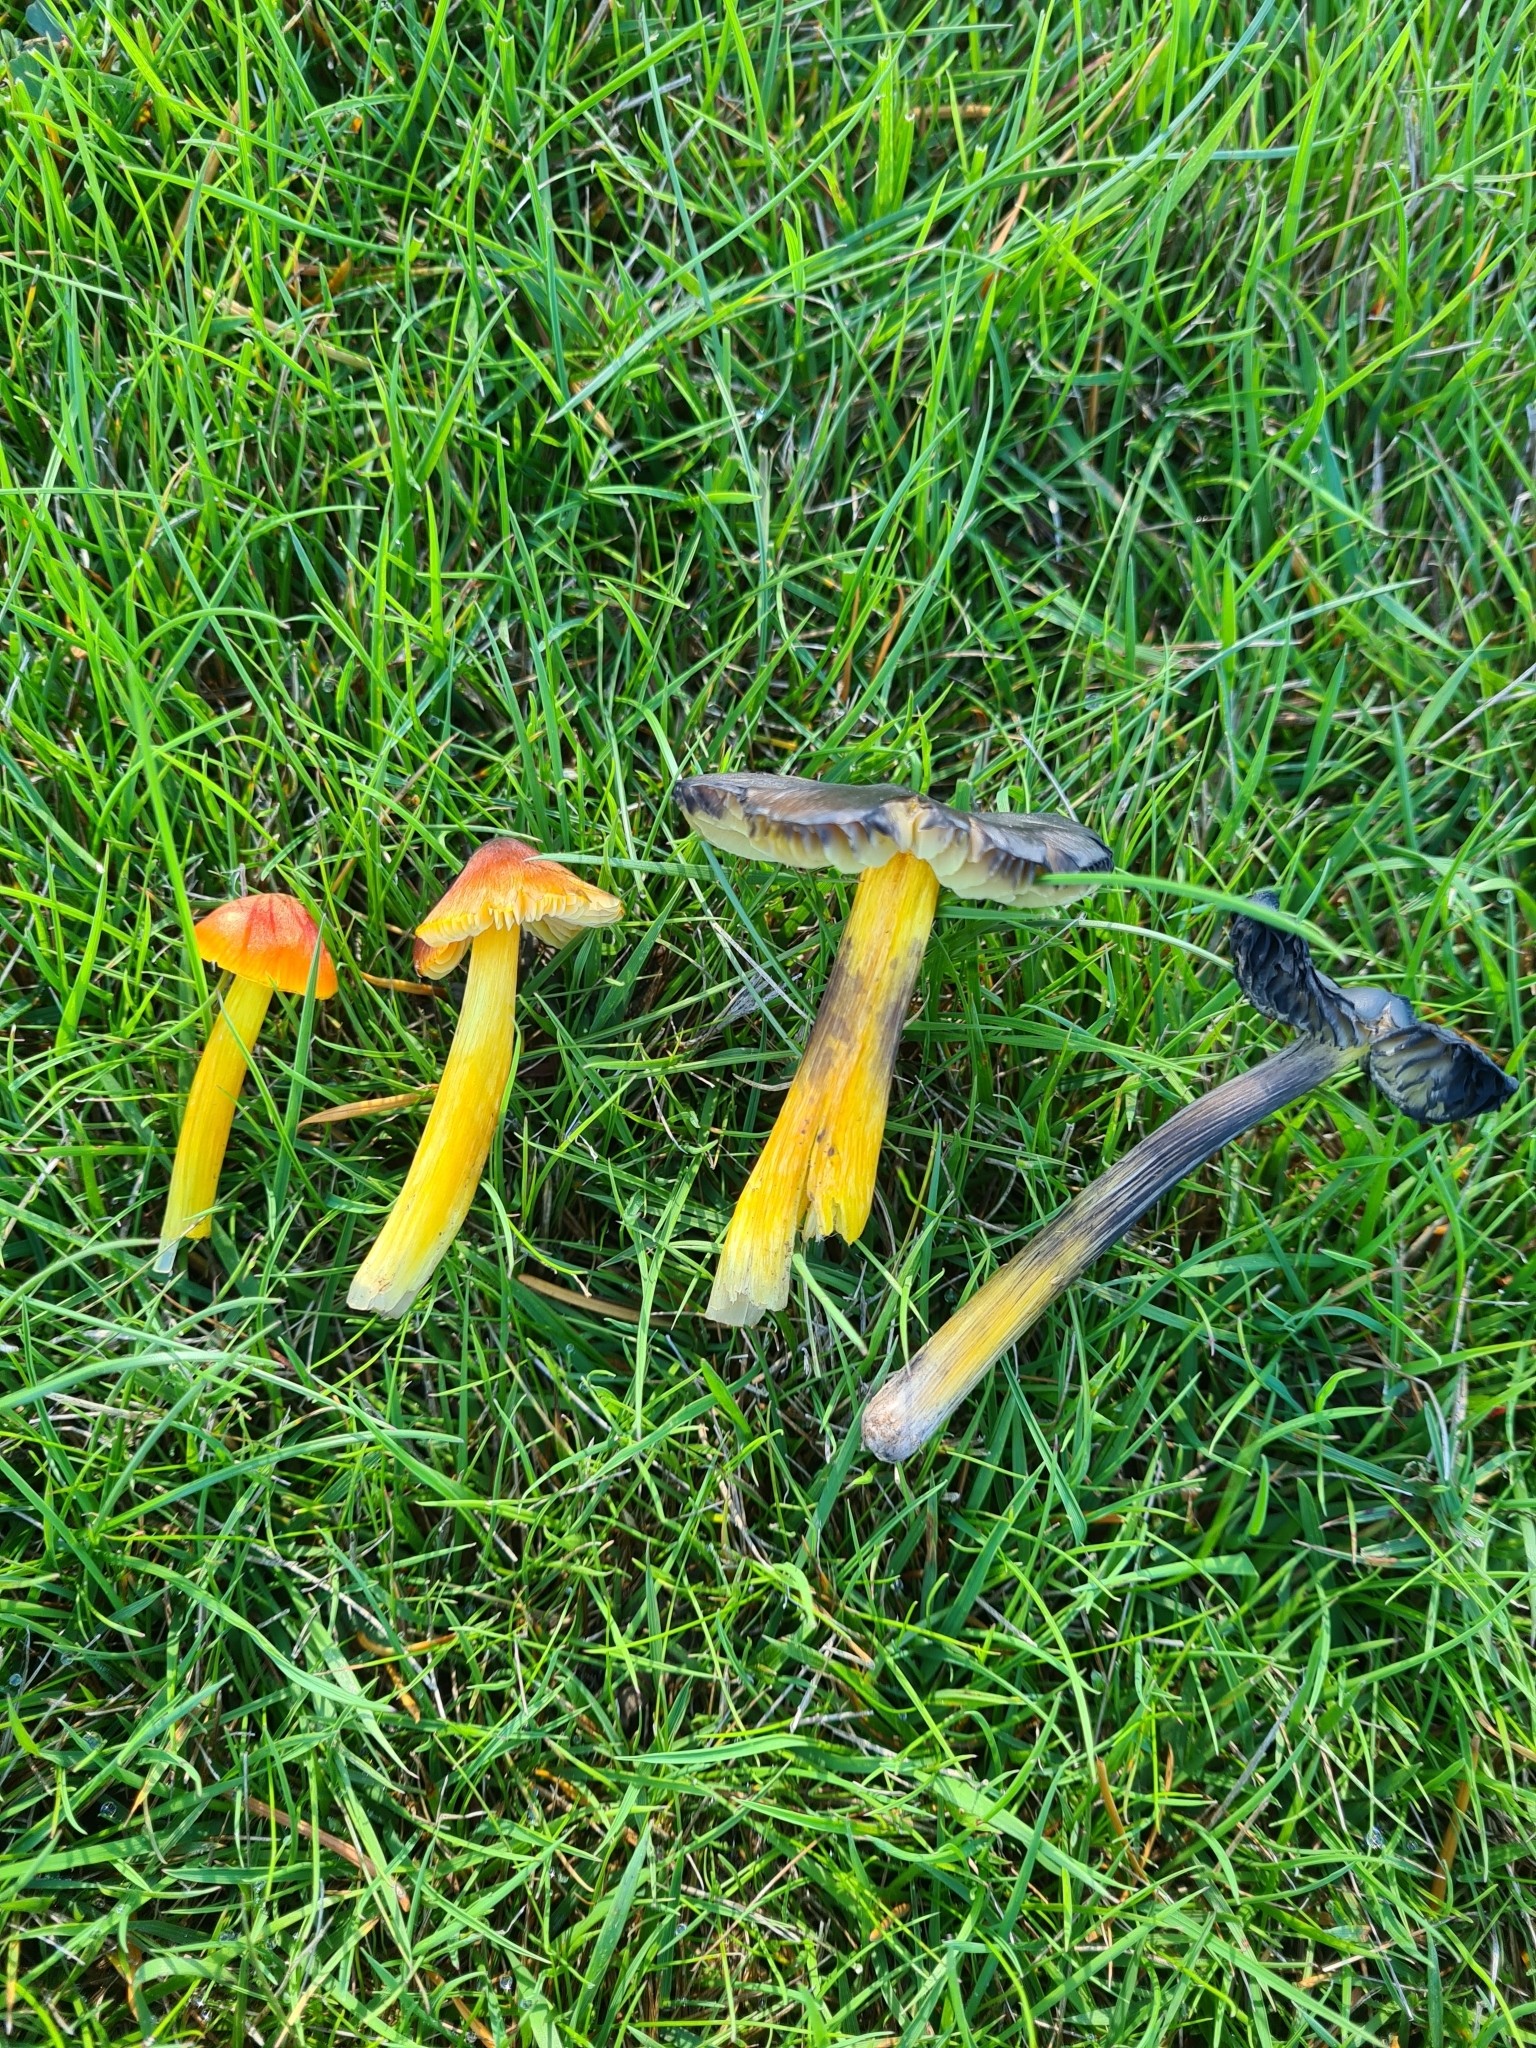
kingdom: Fungi
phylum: Basidiomycota
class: Agaricomycetes
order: Agaricales
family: Hygrophoraceae
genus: Hygrocybe
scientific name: Hygrocybe conica
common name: Blackening wax-cap
